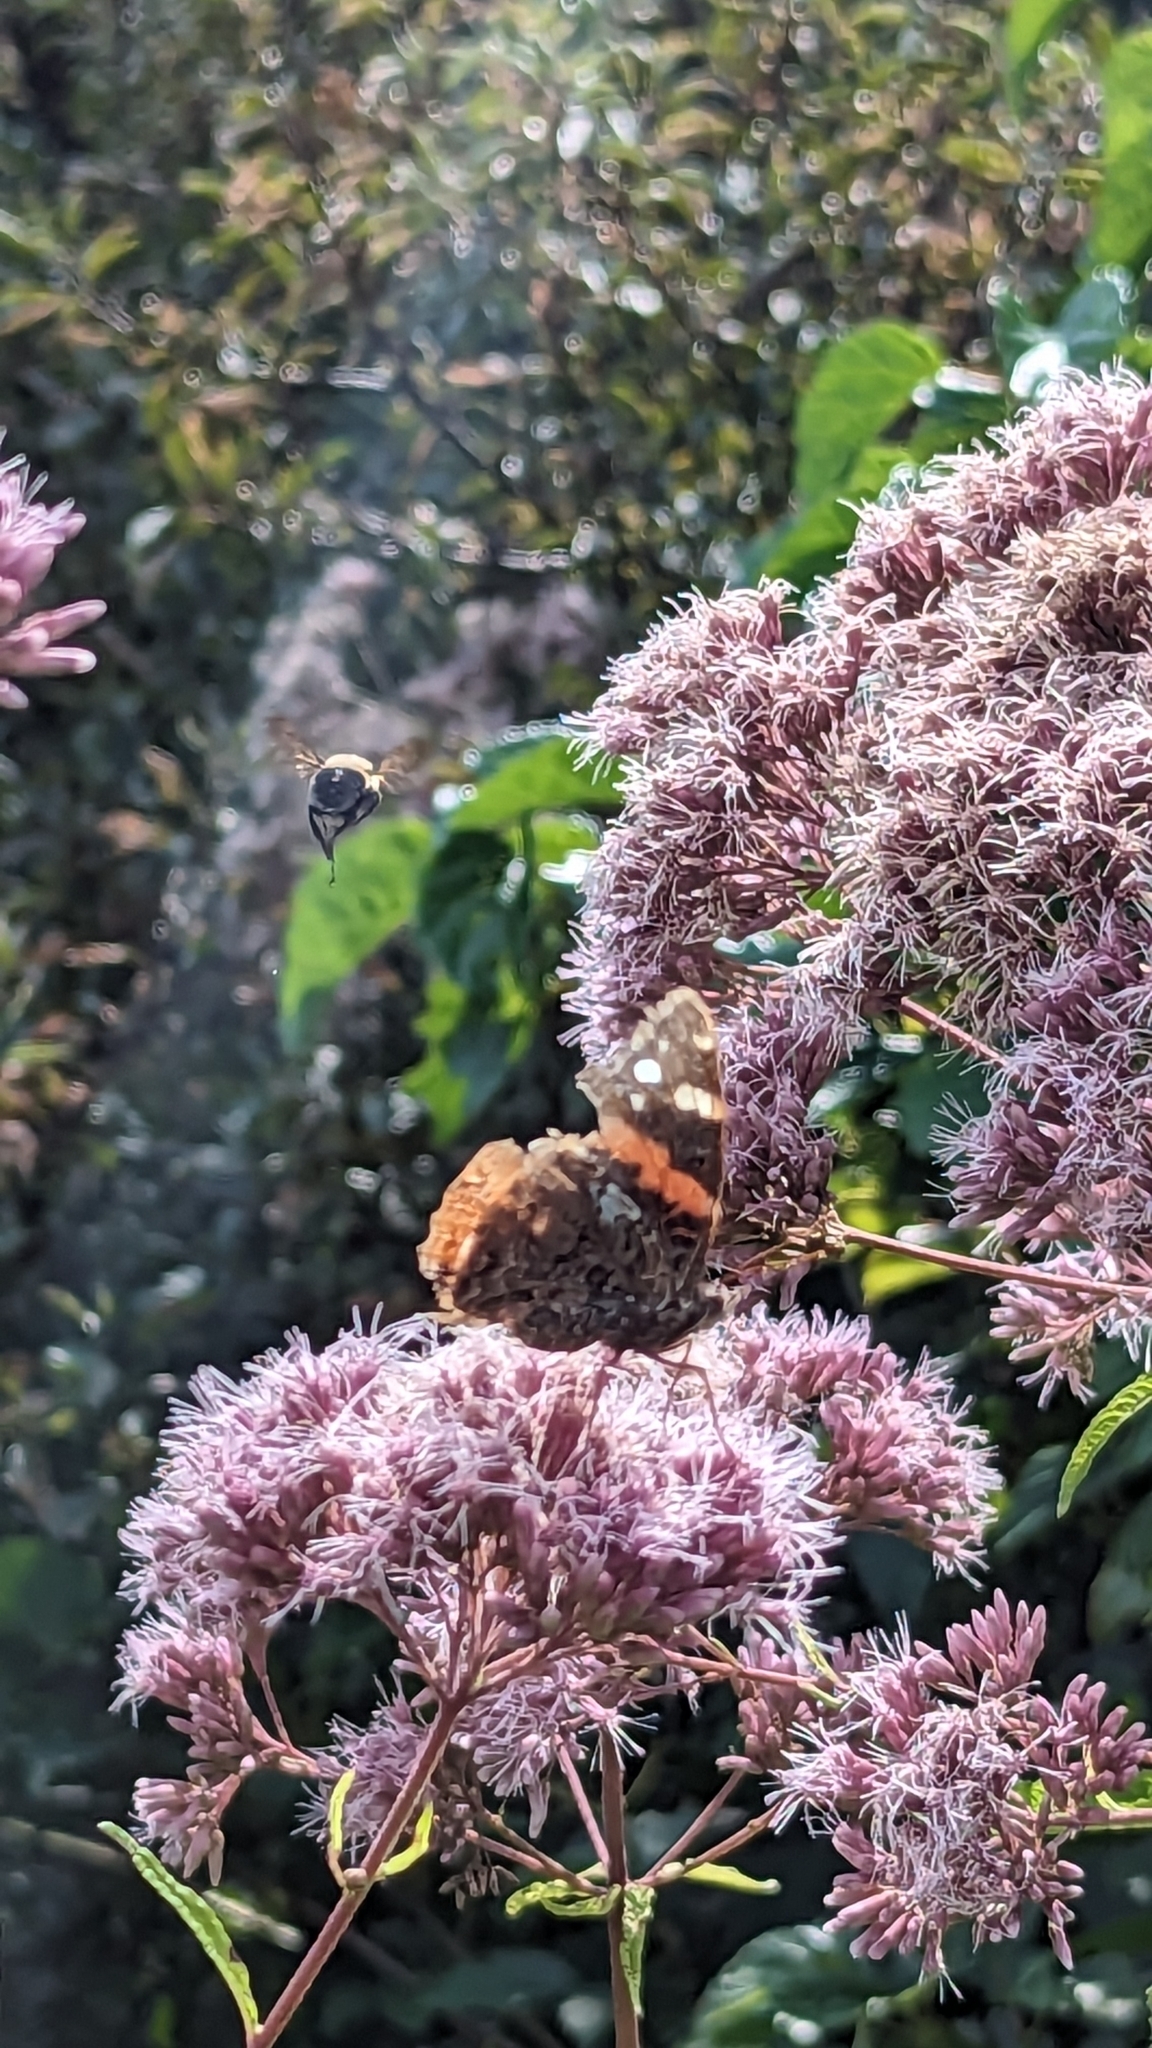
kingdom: Animalia
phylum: Arthropoda
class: Insecta
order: Lepidoptera
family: Nymphalidae
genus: Vanessa
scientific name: Vanessa atalanta
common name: Red admiral
